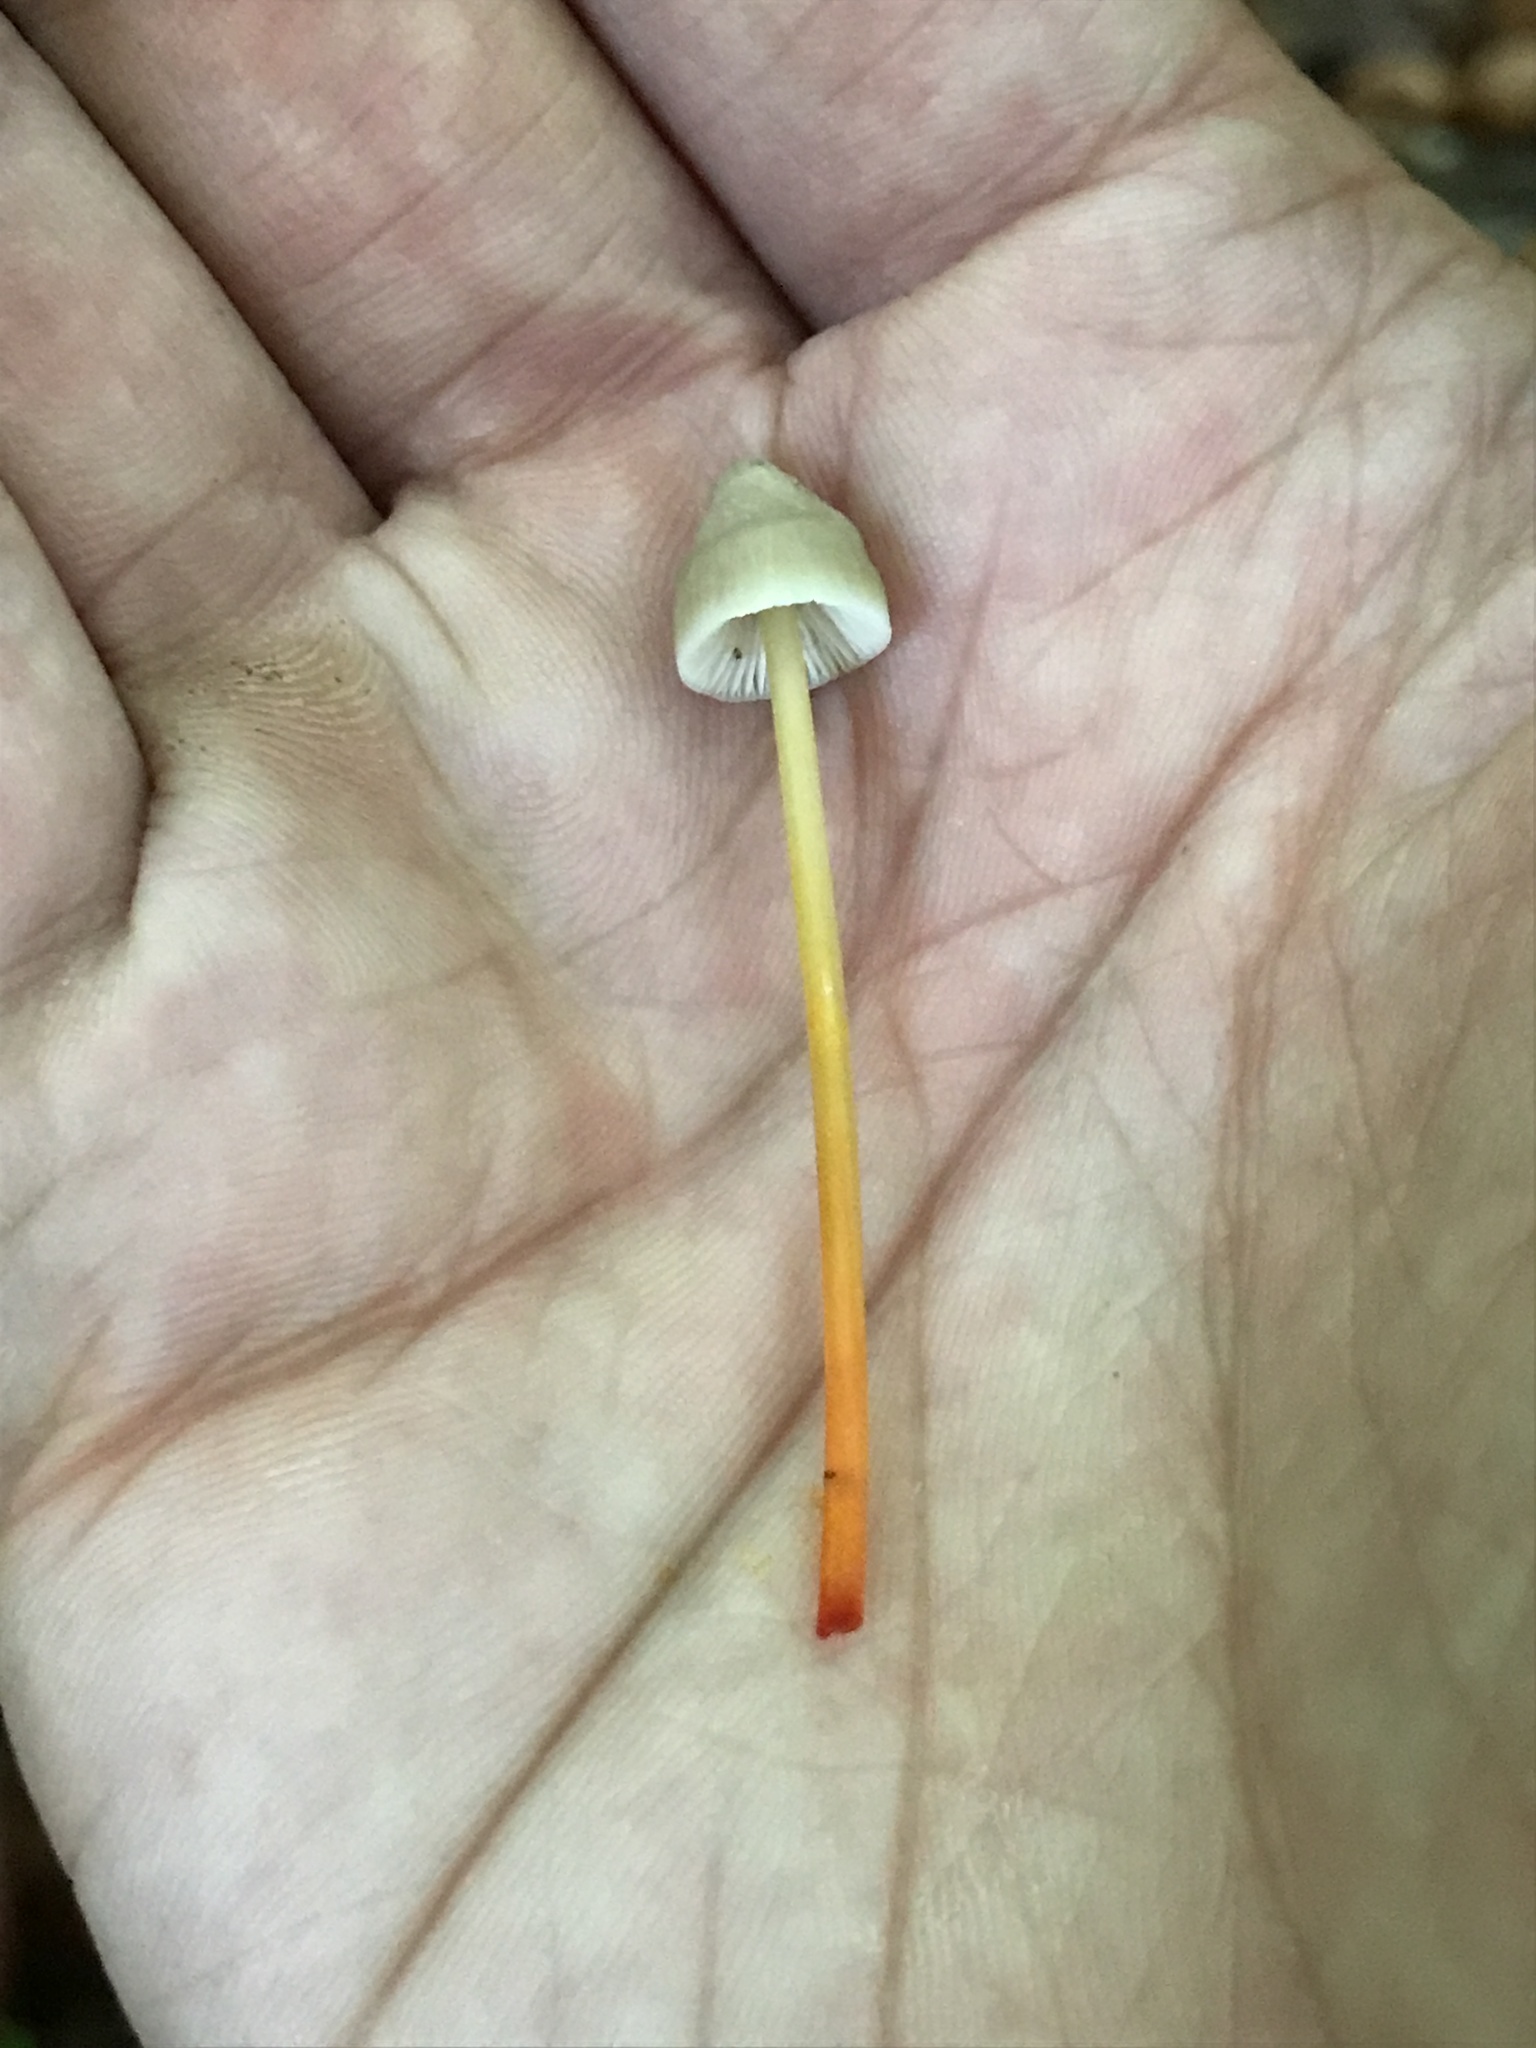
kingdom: Fungi
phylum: Basidiomycota
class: Agaricomycetes
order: Agaricales
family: Mycenaceae
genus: Mycena
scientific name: Mycena crocata
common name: Saffrondrop bonnet
